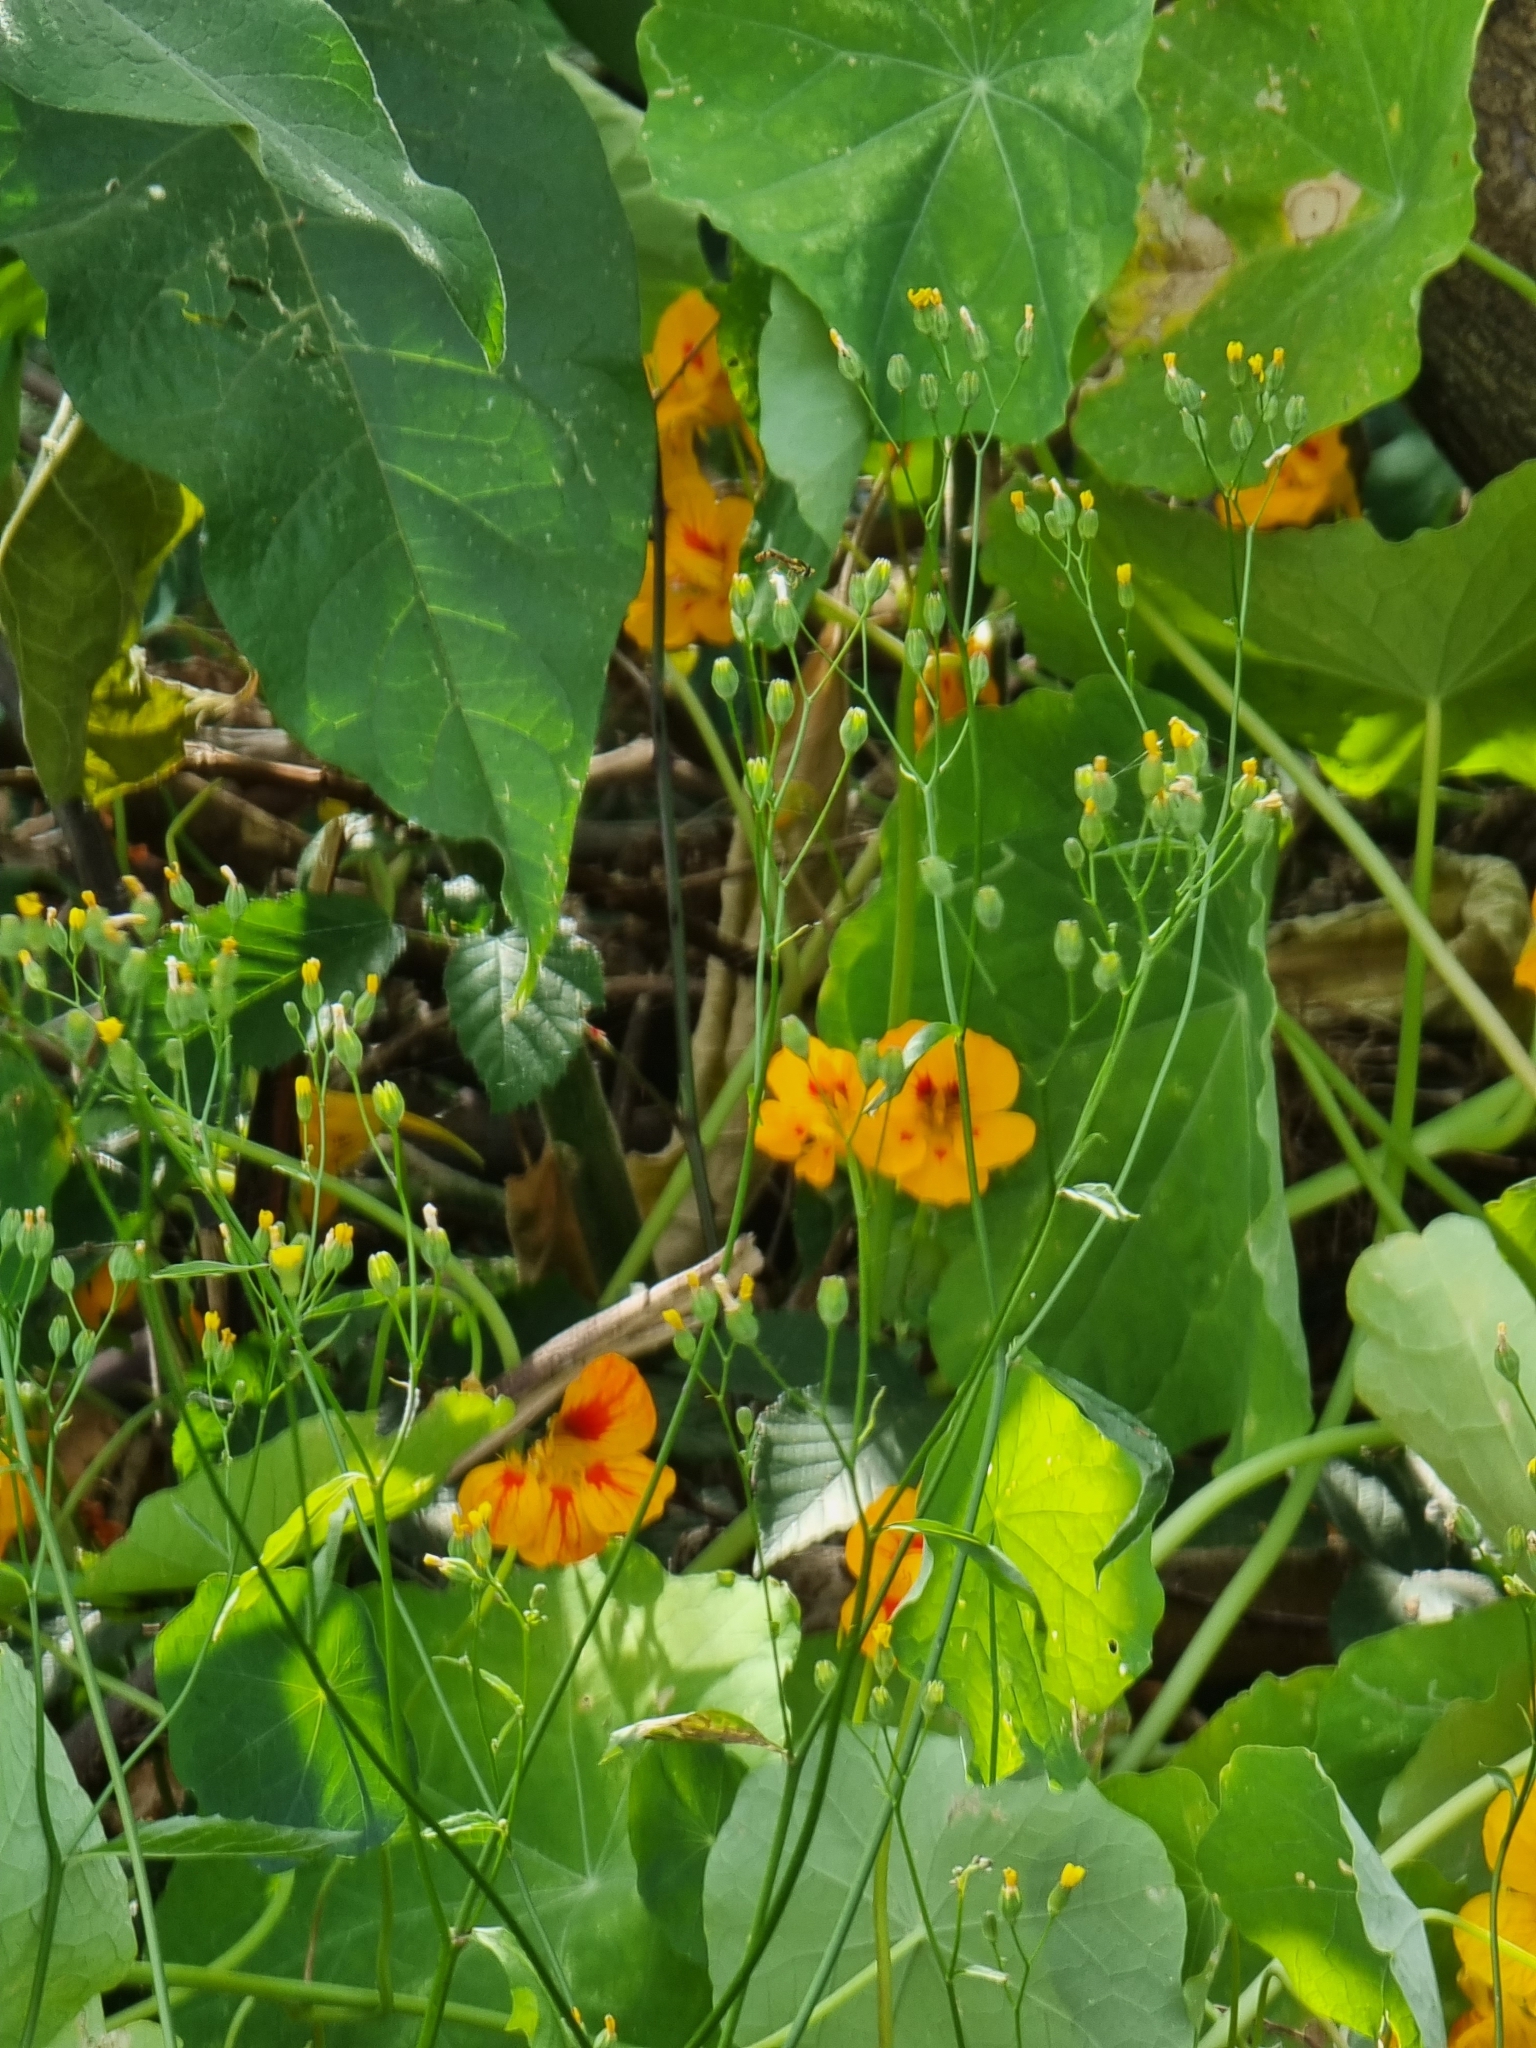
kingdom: Plantae
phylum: Tracheophyta
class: Magnoliopsida
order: Asterales
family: Asteraceae
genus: Lapsana
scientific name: Lapsana communis
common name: Nipplewort
